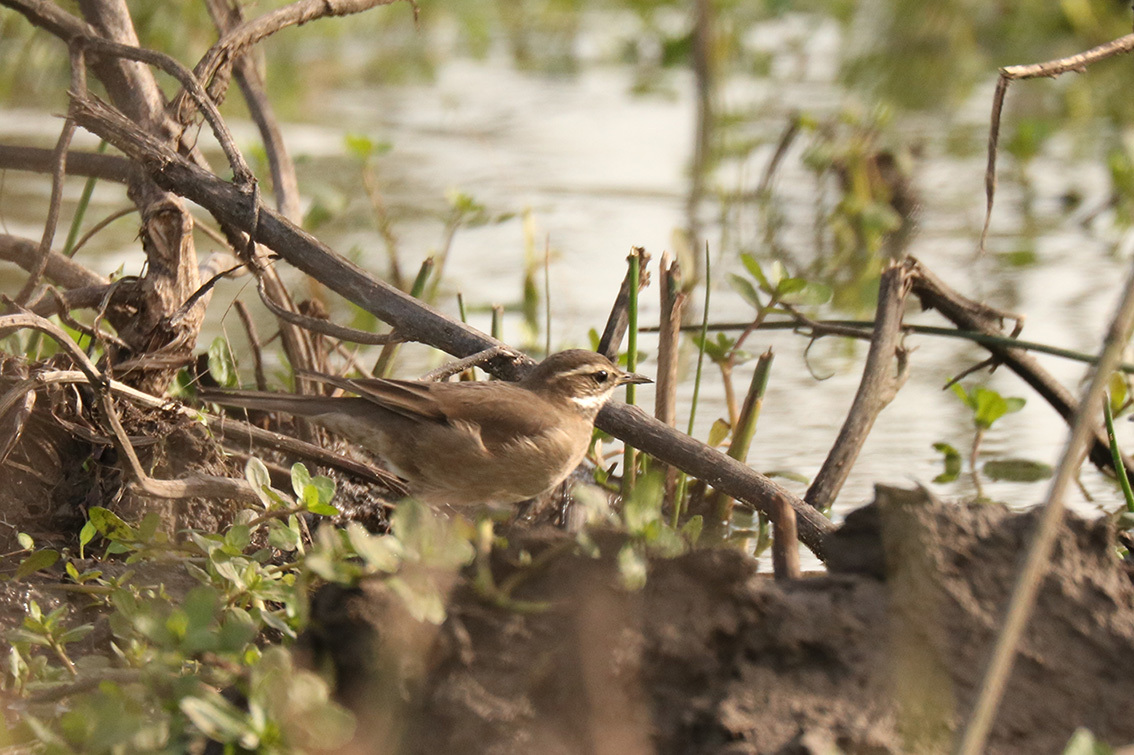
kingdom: Animalia
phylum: Chordata
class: Aves
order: Passeriformes
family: Furnariidae
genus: Cinclodes
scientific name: Cinclodes fuscus
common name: Buff-winged cinclodes
